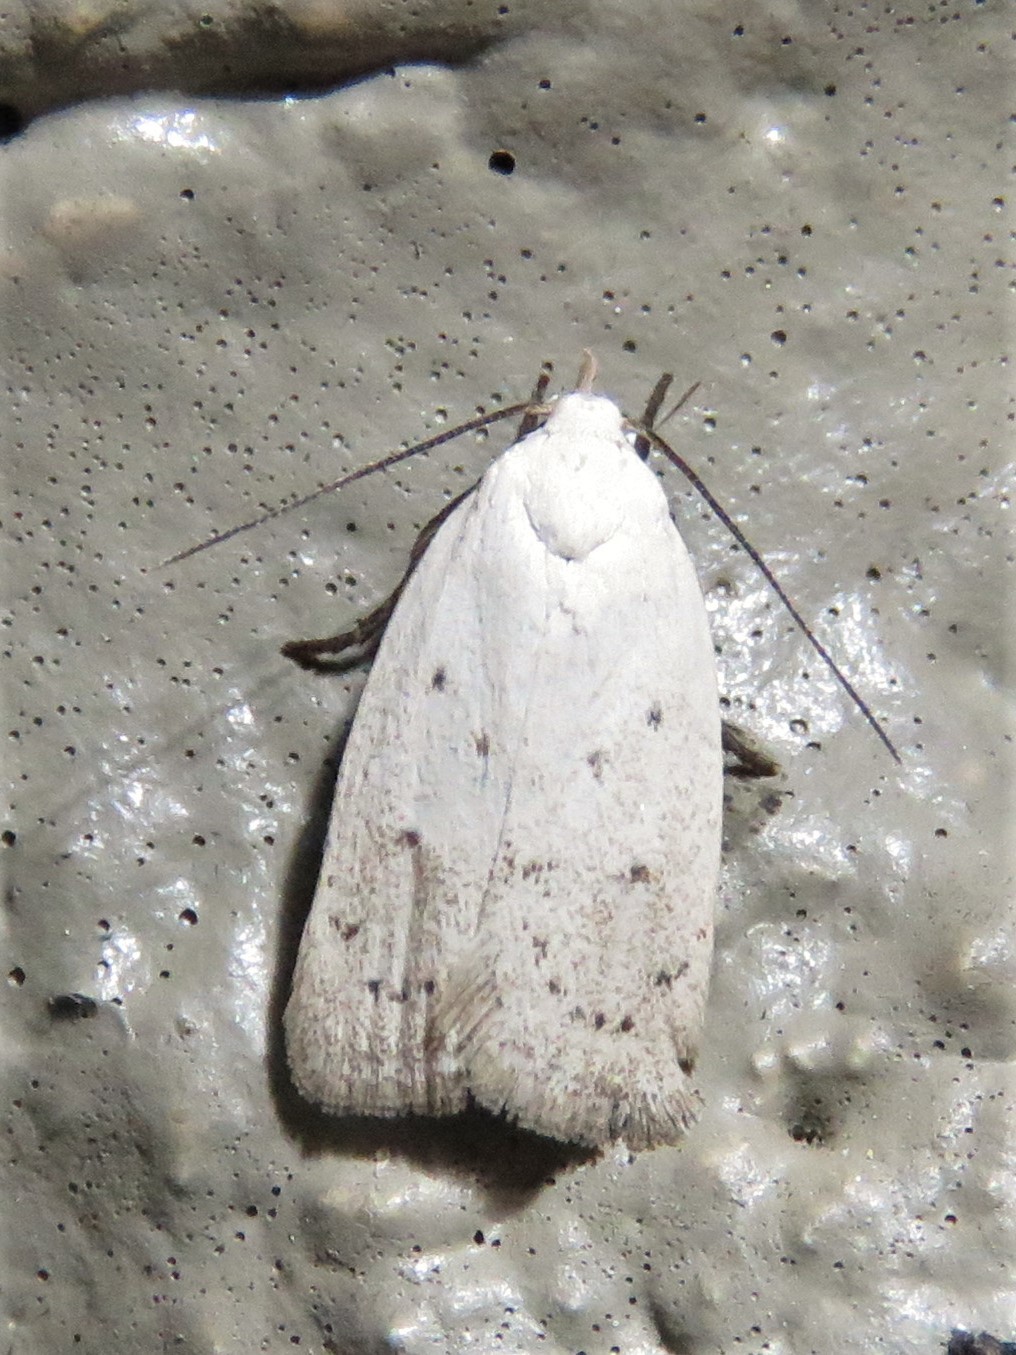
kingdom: Animalia
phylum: Arthropoda
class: Insecta
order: Lepidoptera
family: Oecophoridae
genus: Inga
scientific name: Inga cretacea
